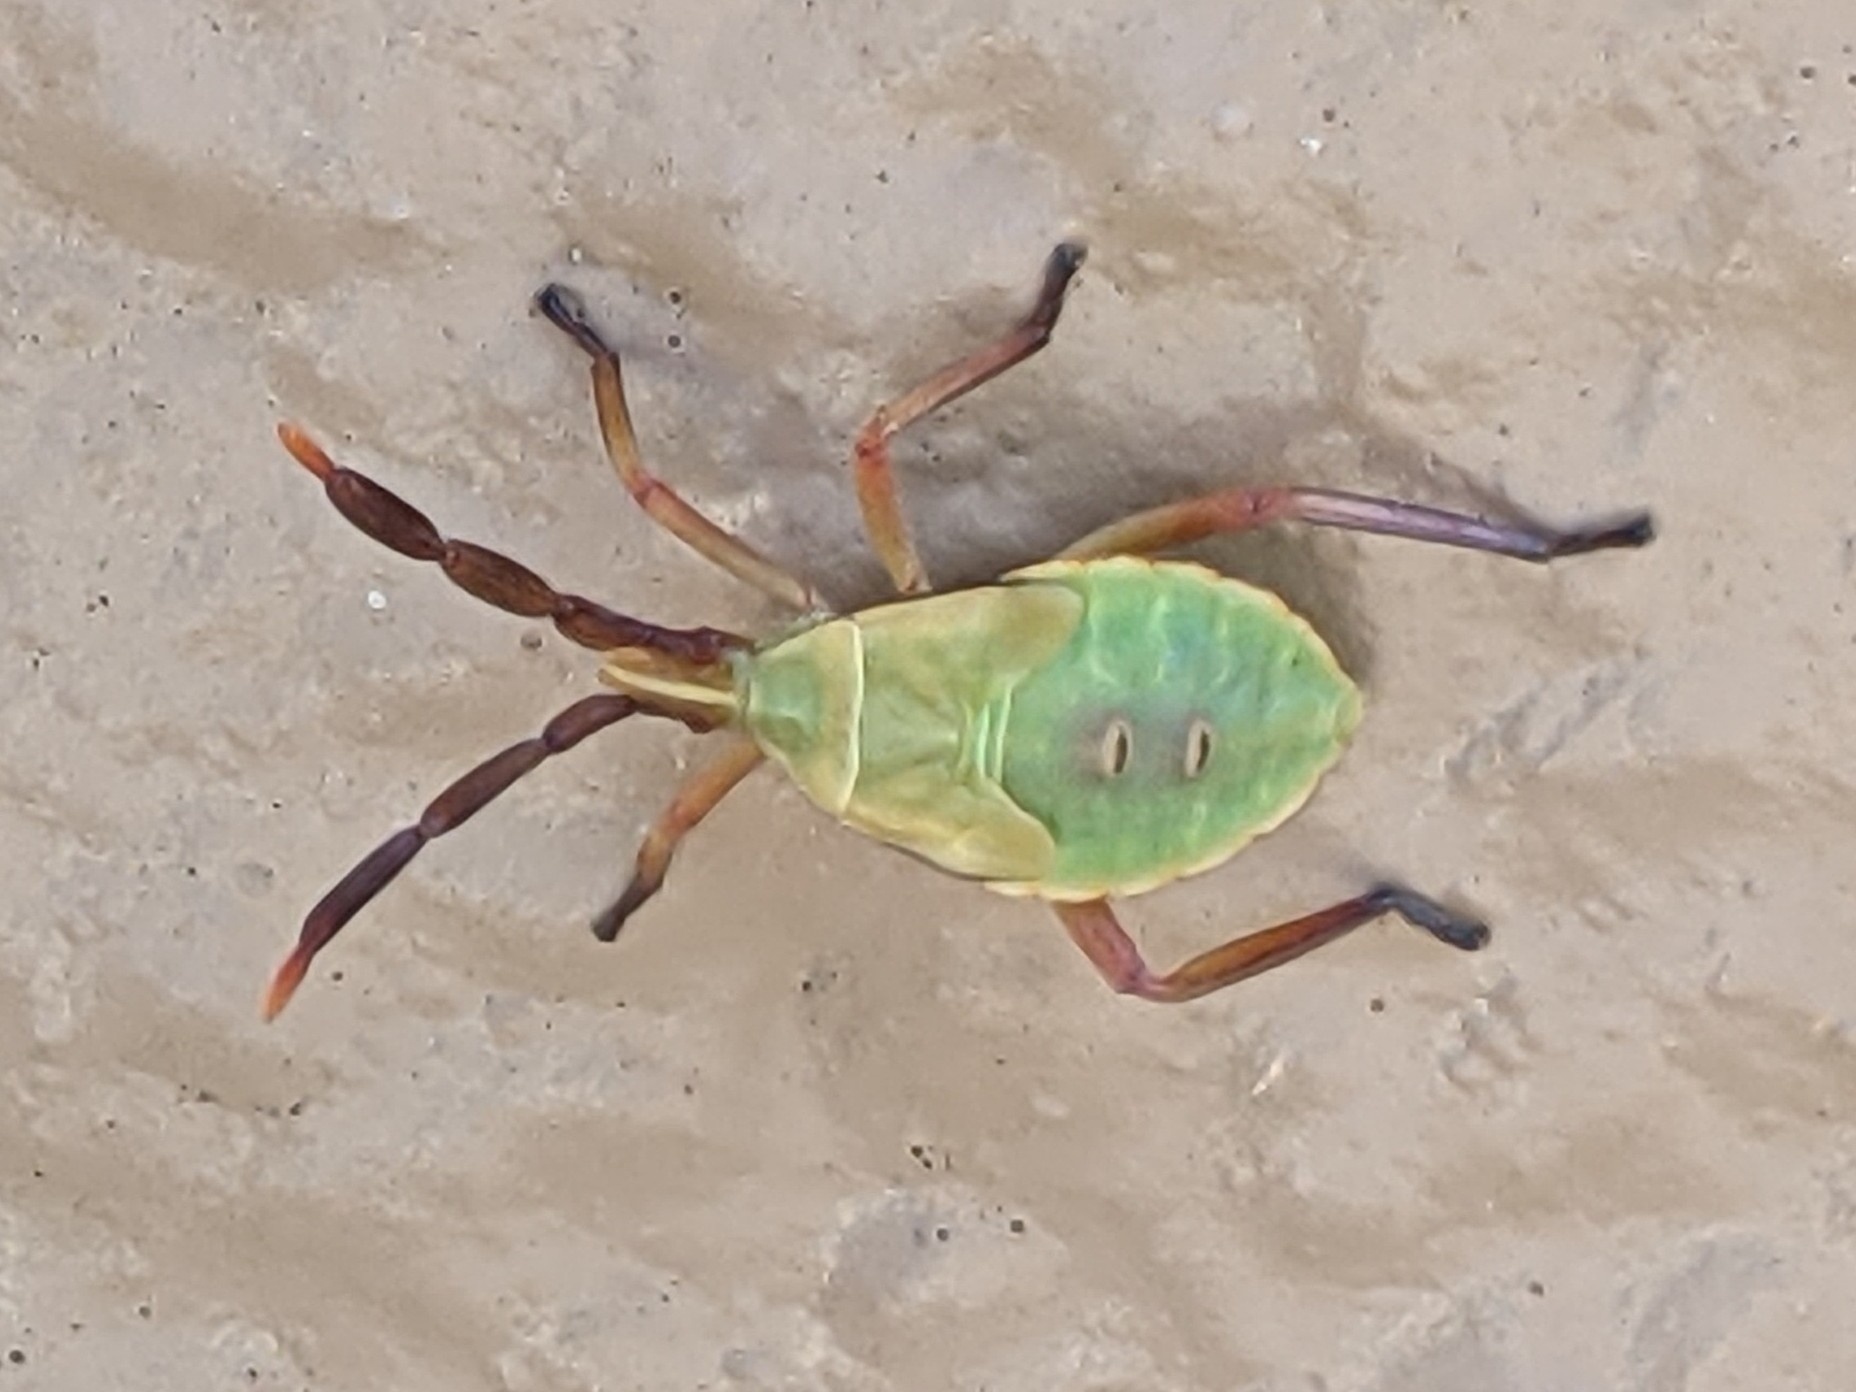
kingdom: Animalia
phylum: Arthropoda
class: Insecta
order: Hemiptera
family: Coreidae
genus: Chelinidea
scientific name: Chelinidea vittiger
